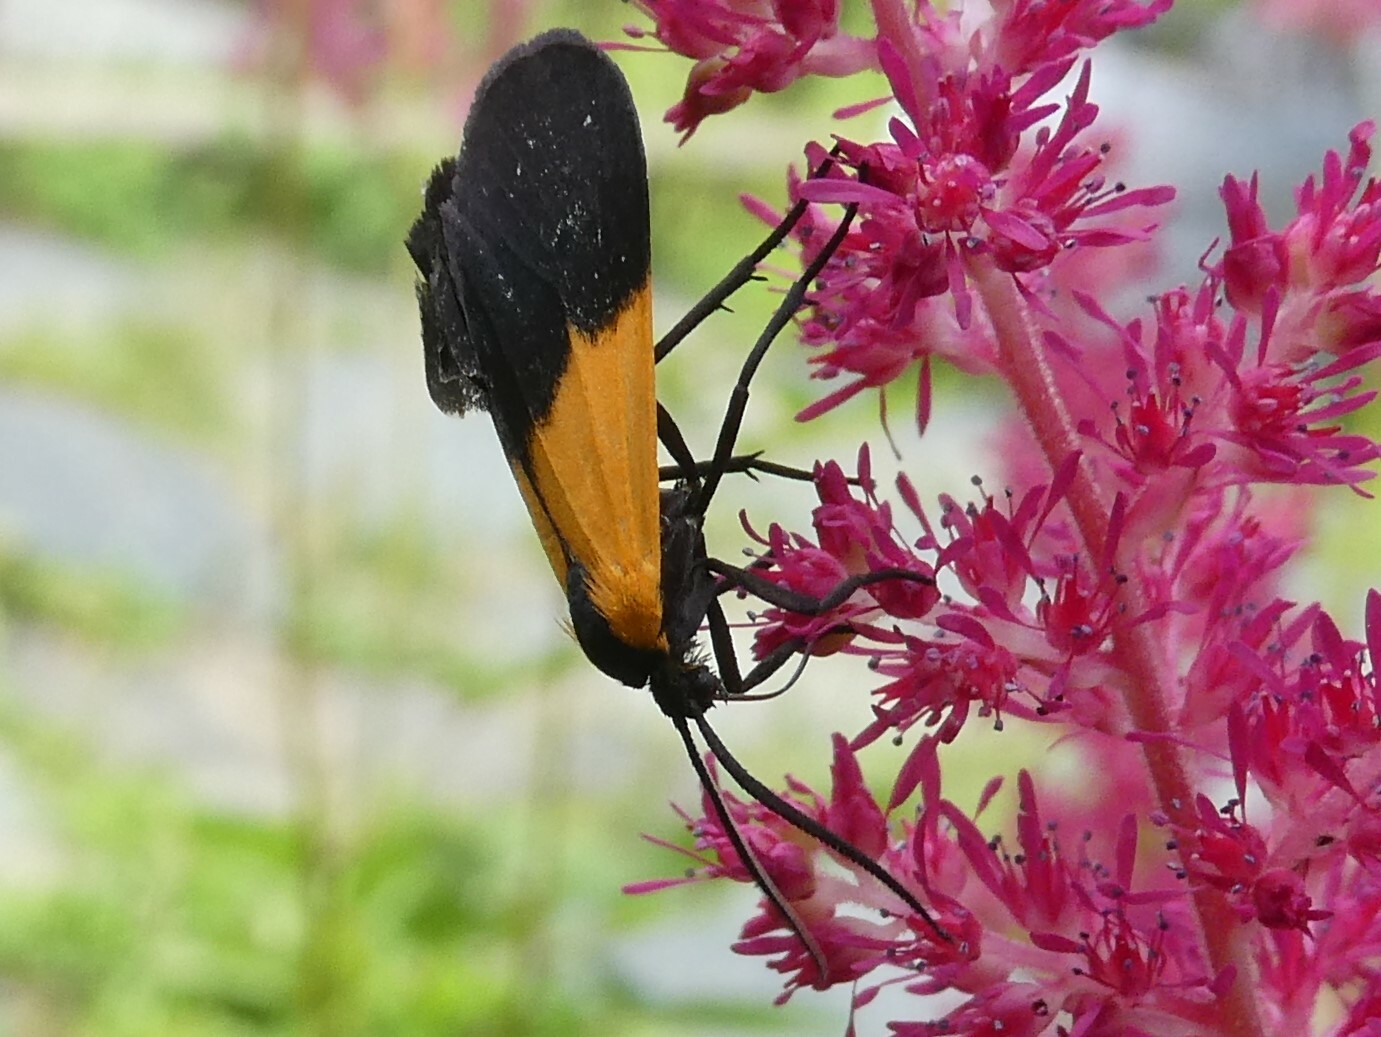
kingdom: Animalia
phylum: Arthropoda
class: Insecta
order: Lepidoptera
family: Erebidae
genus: Lycomorpha
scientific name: Lycomorpha pholus
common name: Black-and-yellow lichen moth
